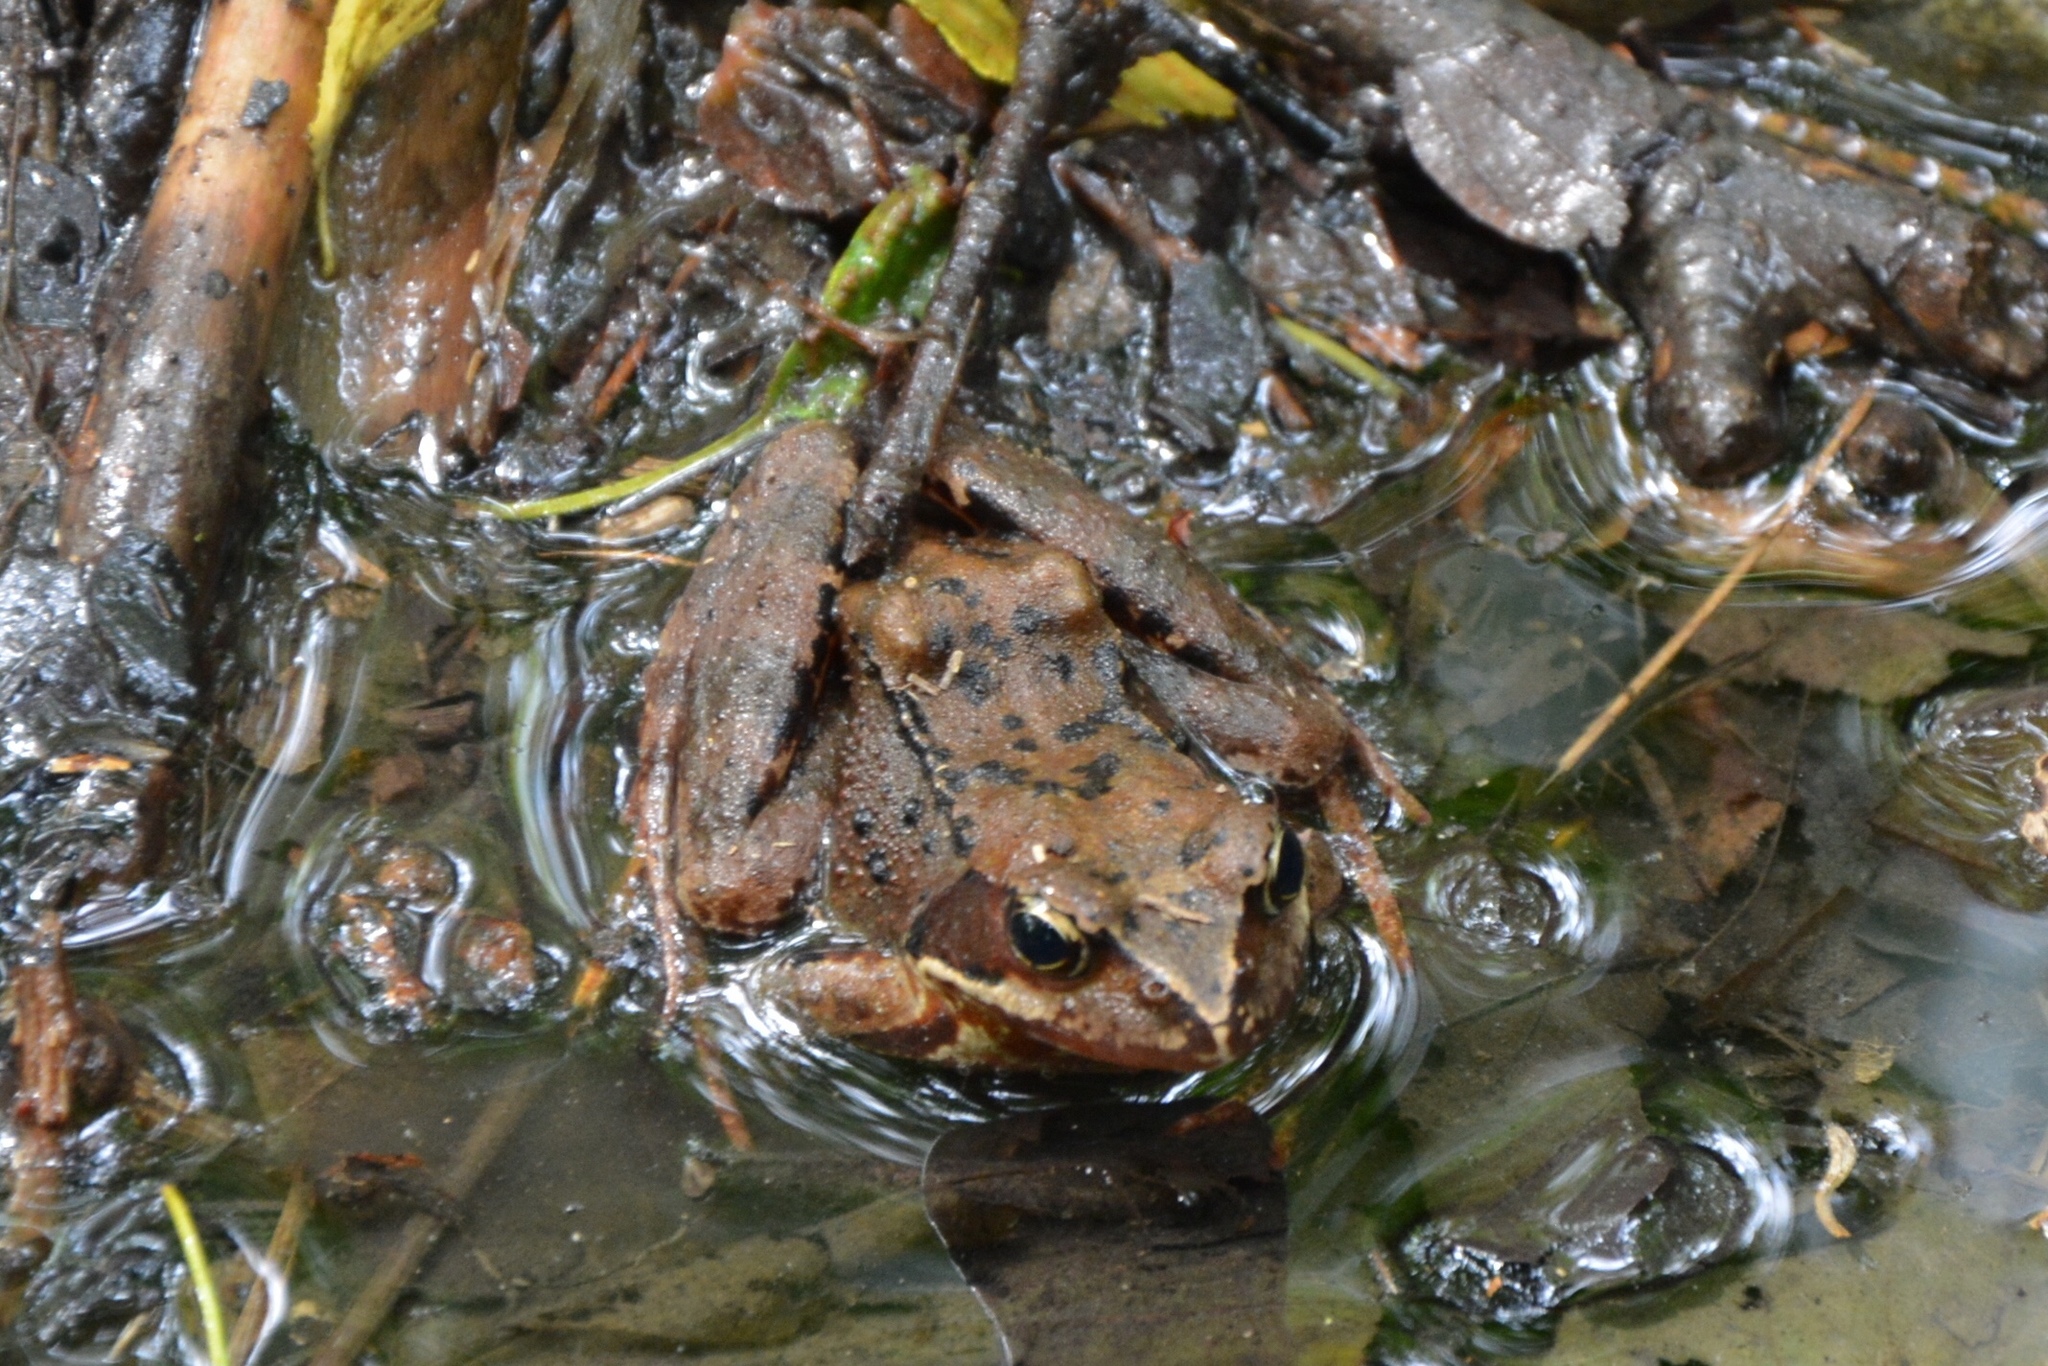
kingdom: Animalia
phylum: Chordata
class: Amphibia
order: Anura
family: Ranidae
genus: Rana
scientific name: Rana temporaria
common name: Common frog
